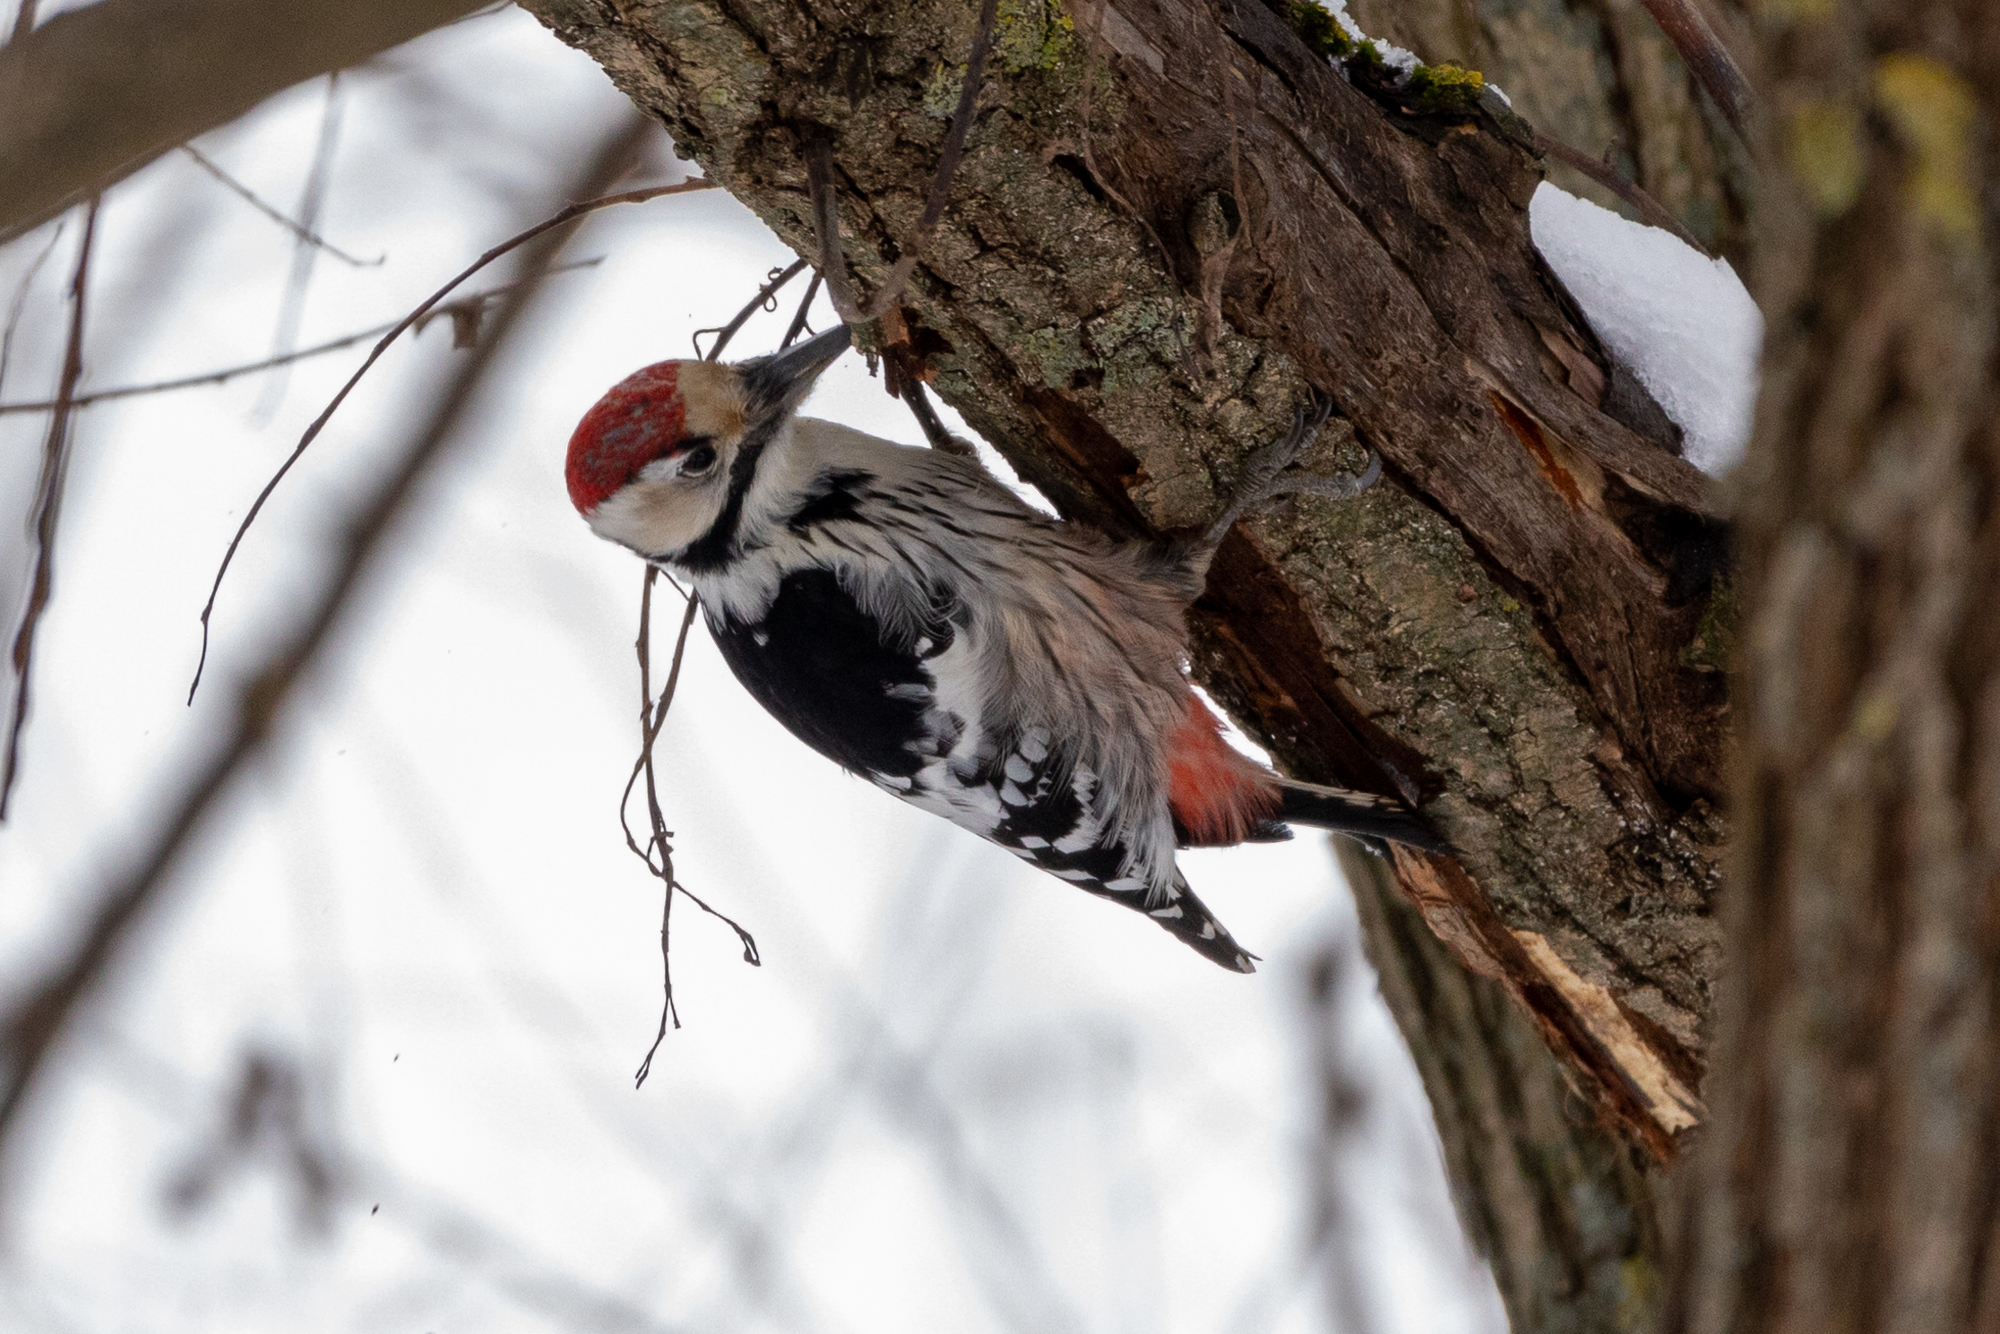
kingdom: Animalia
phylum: Chordata
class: Aves
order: Piciformes
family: Picidae
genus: Dendrocopos
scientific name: Dendrocopos leucotos
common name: White-backed woodpecker
